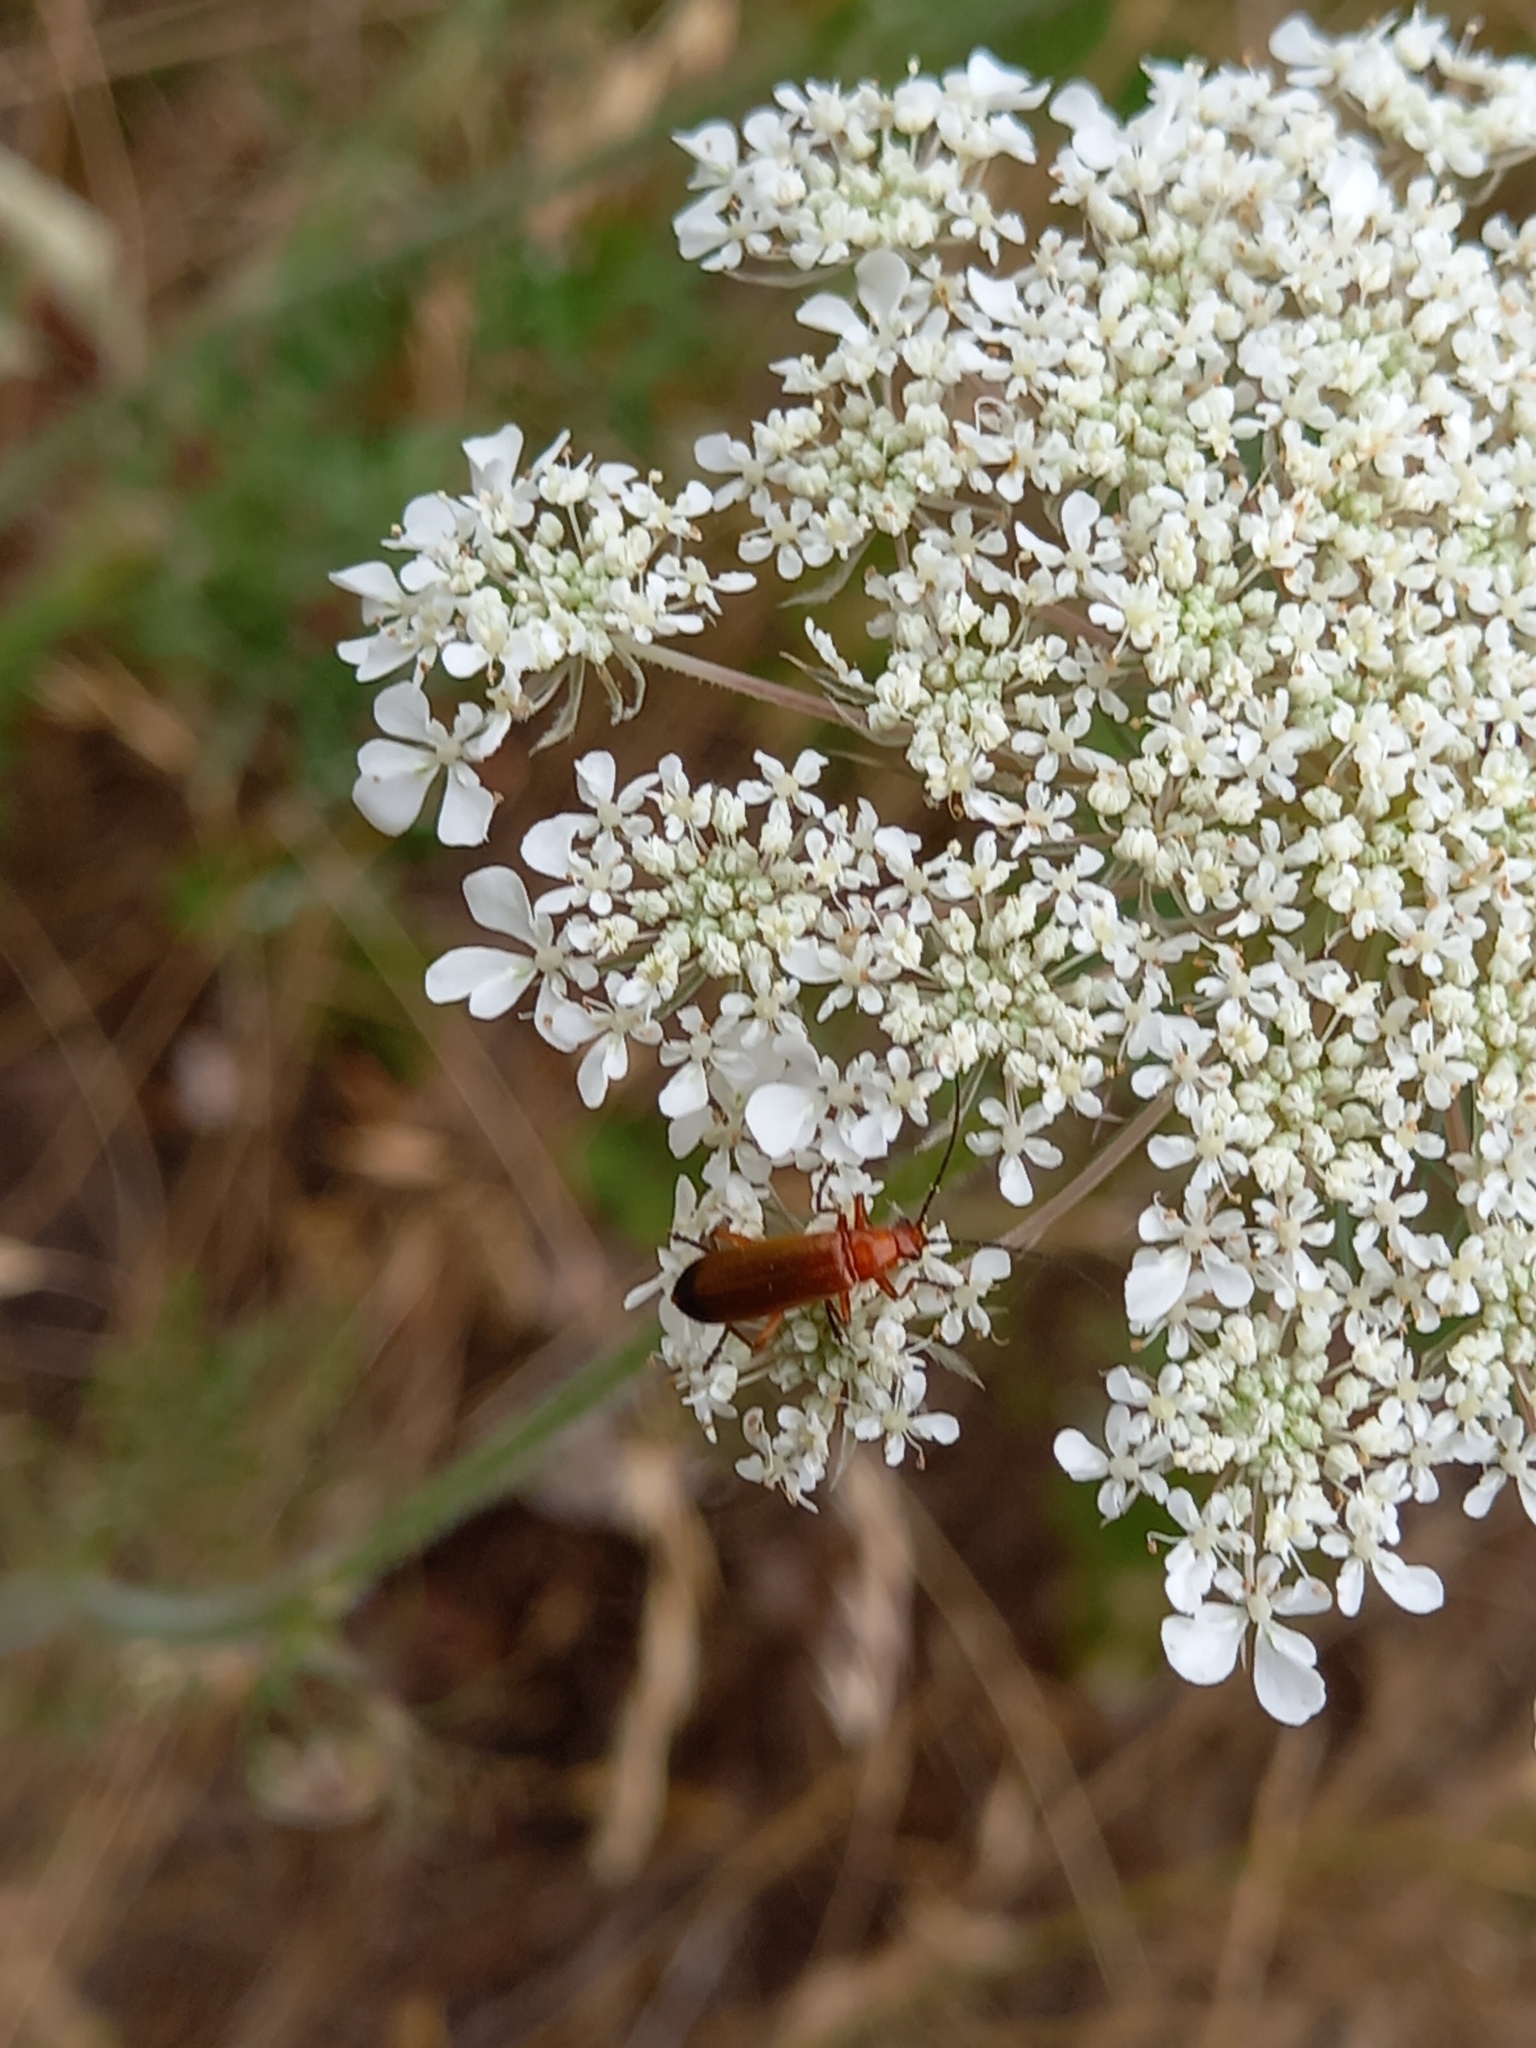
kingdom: Animalia
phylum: Arthropoda
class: Insecta
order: Coleoptera
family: Cantharidae
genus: Rhagonycha
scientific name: Rhagonycha fulva
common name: Common red soldier beetle
